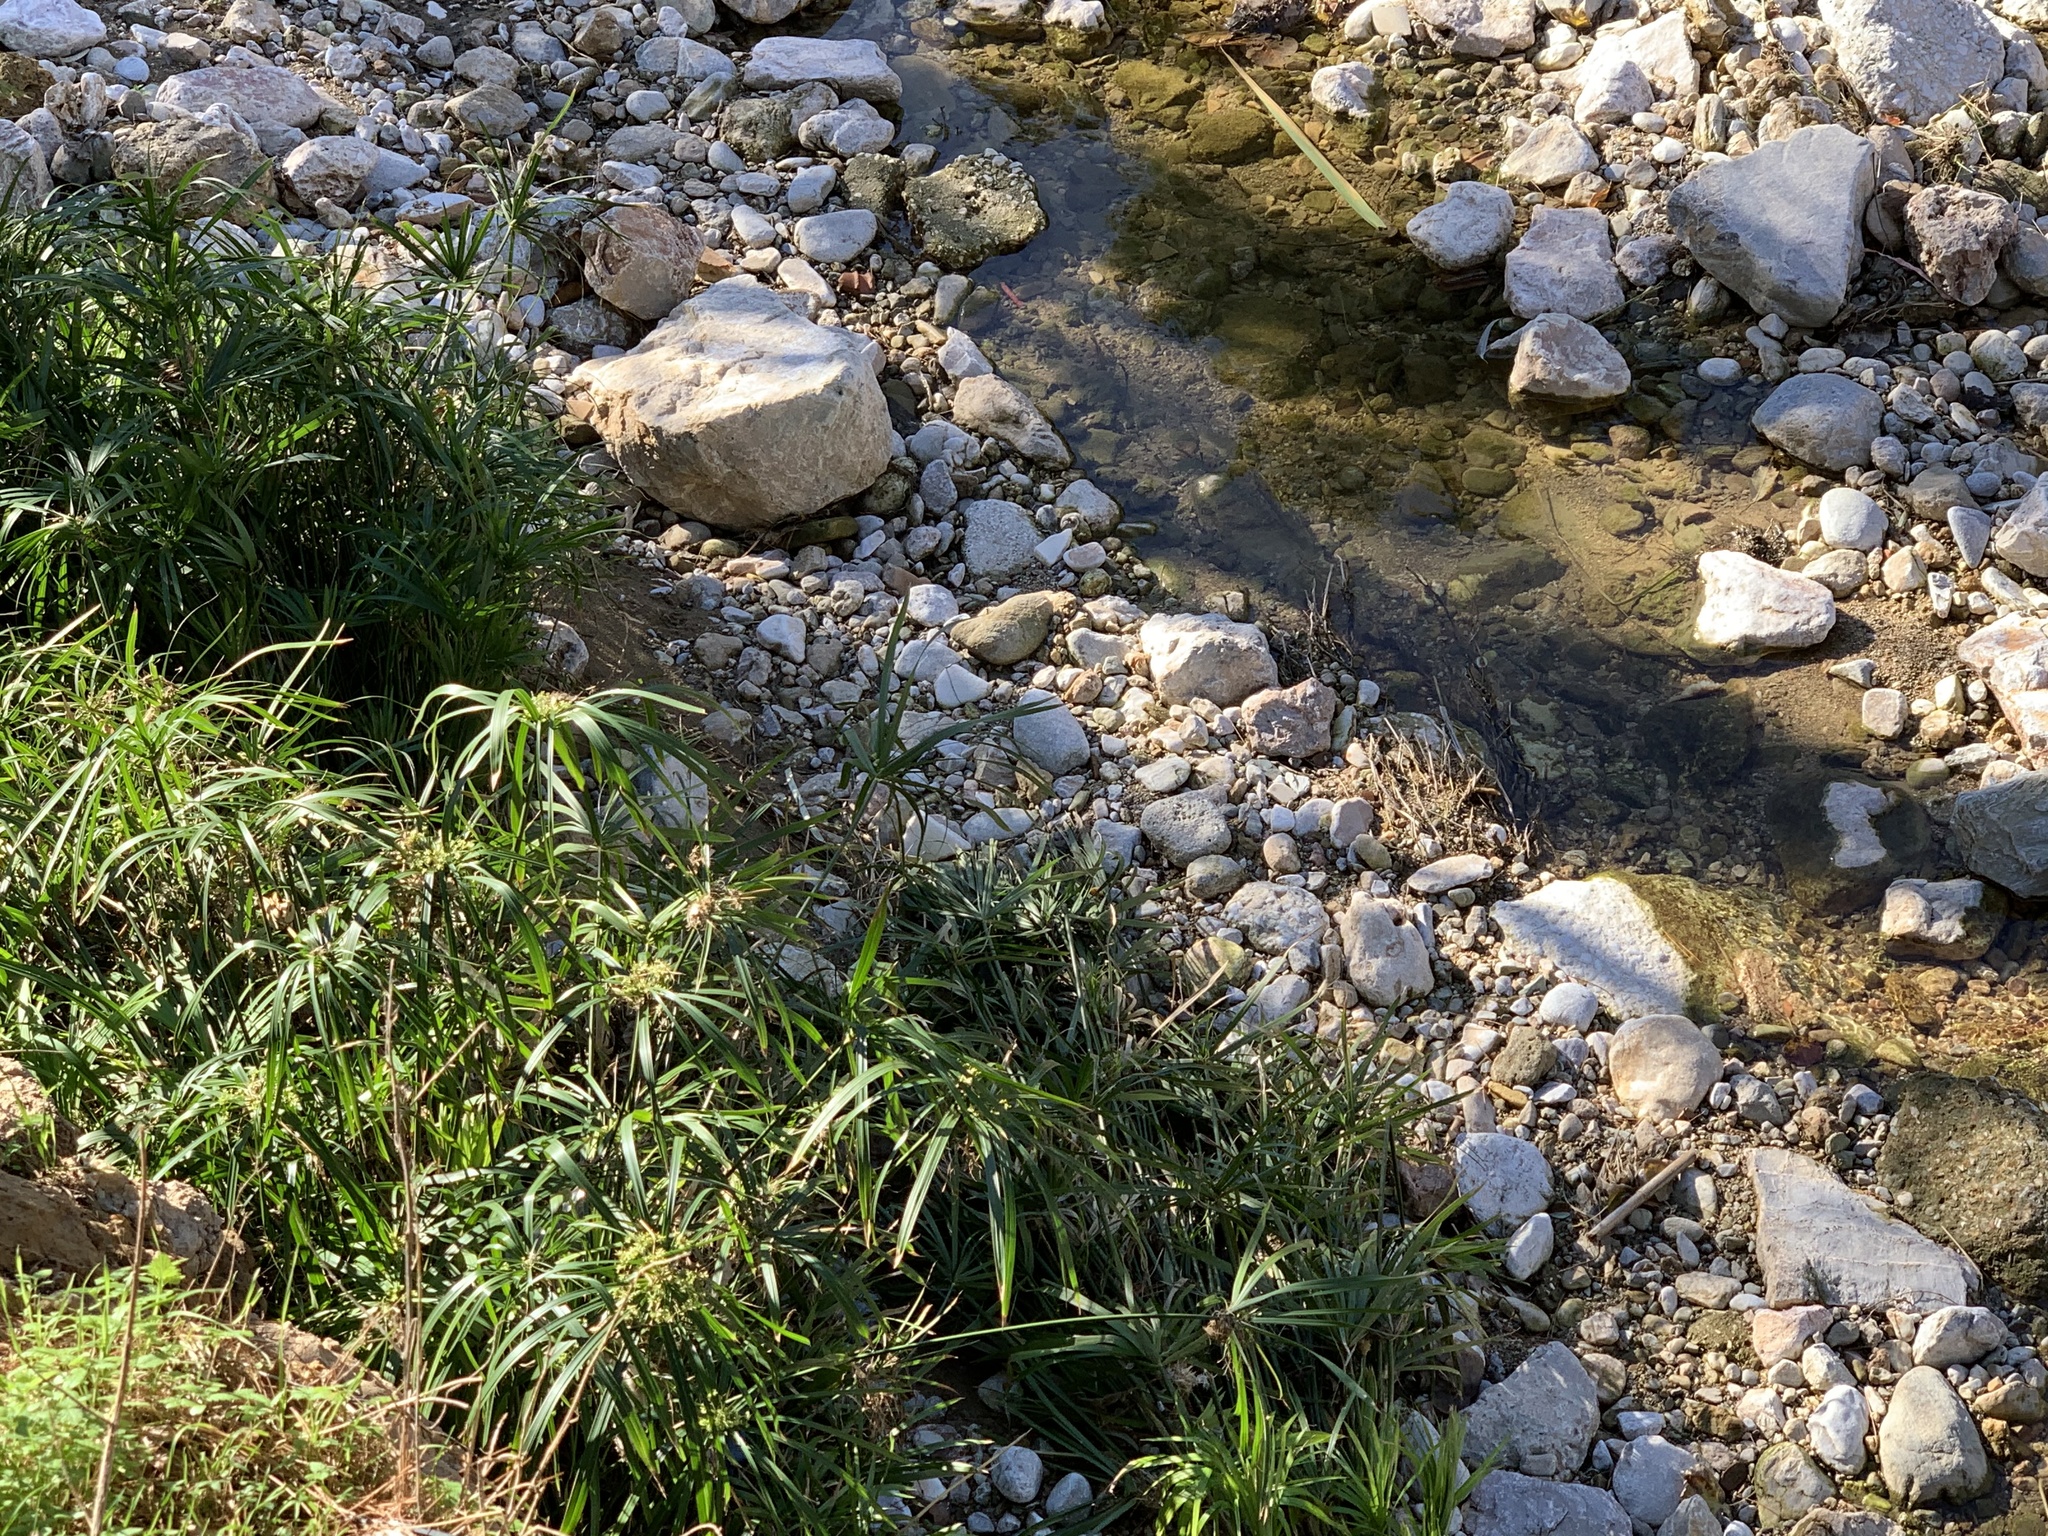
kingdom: Plantae
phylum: Tracheophyta
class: Liliopsida
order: Poales
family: Cyperaceae
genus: Cyperus
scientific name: Cyperus alternifolius
